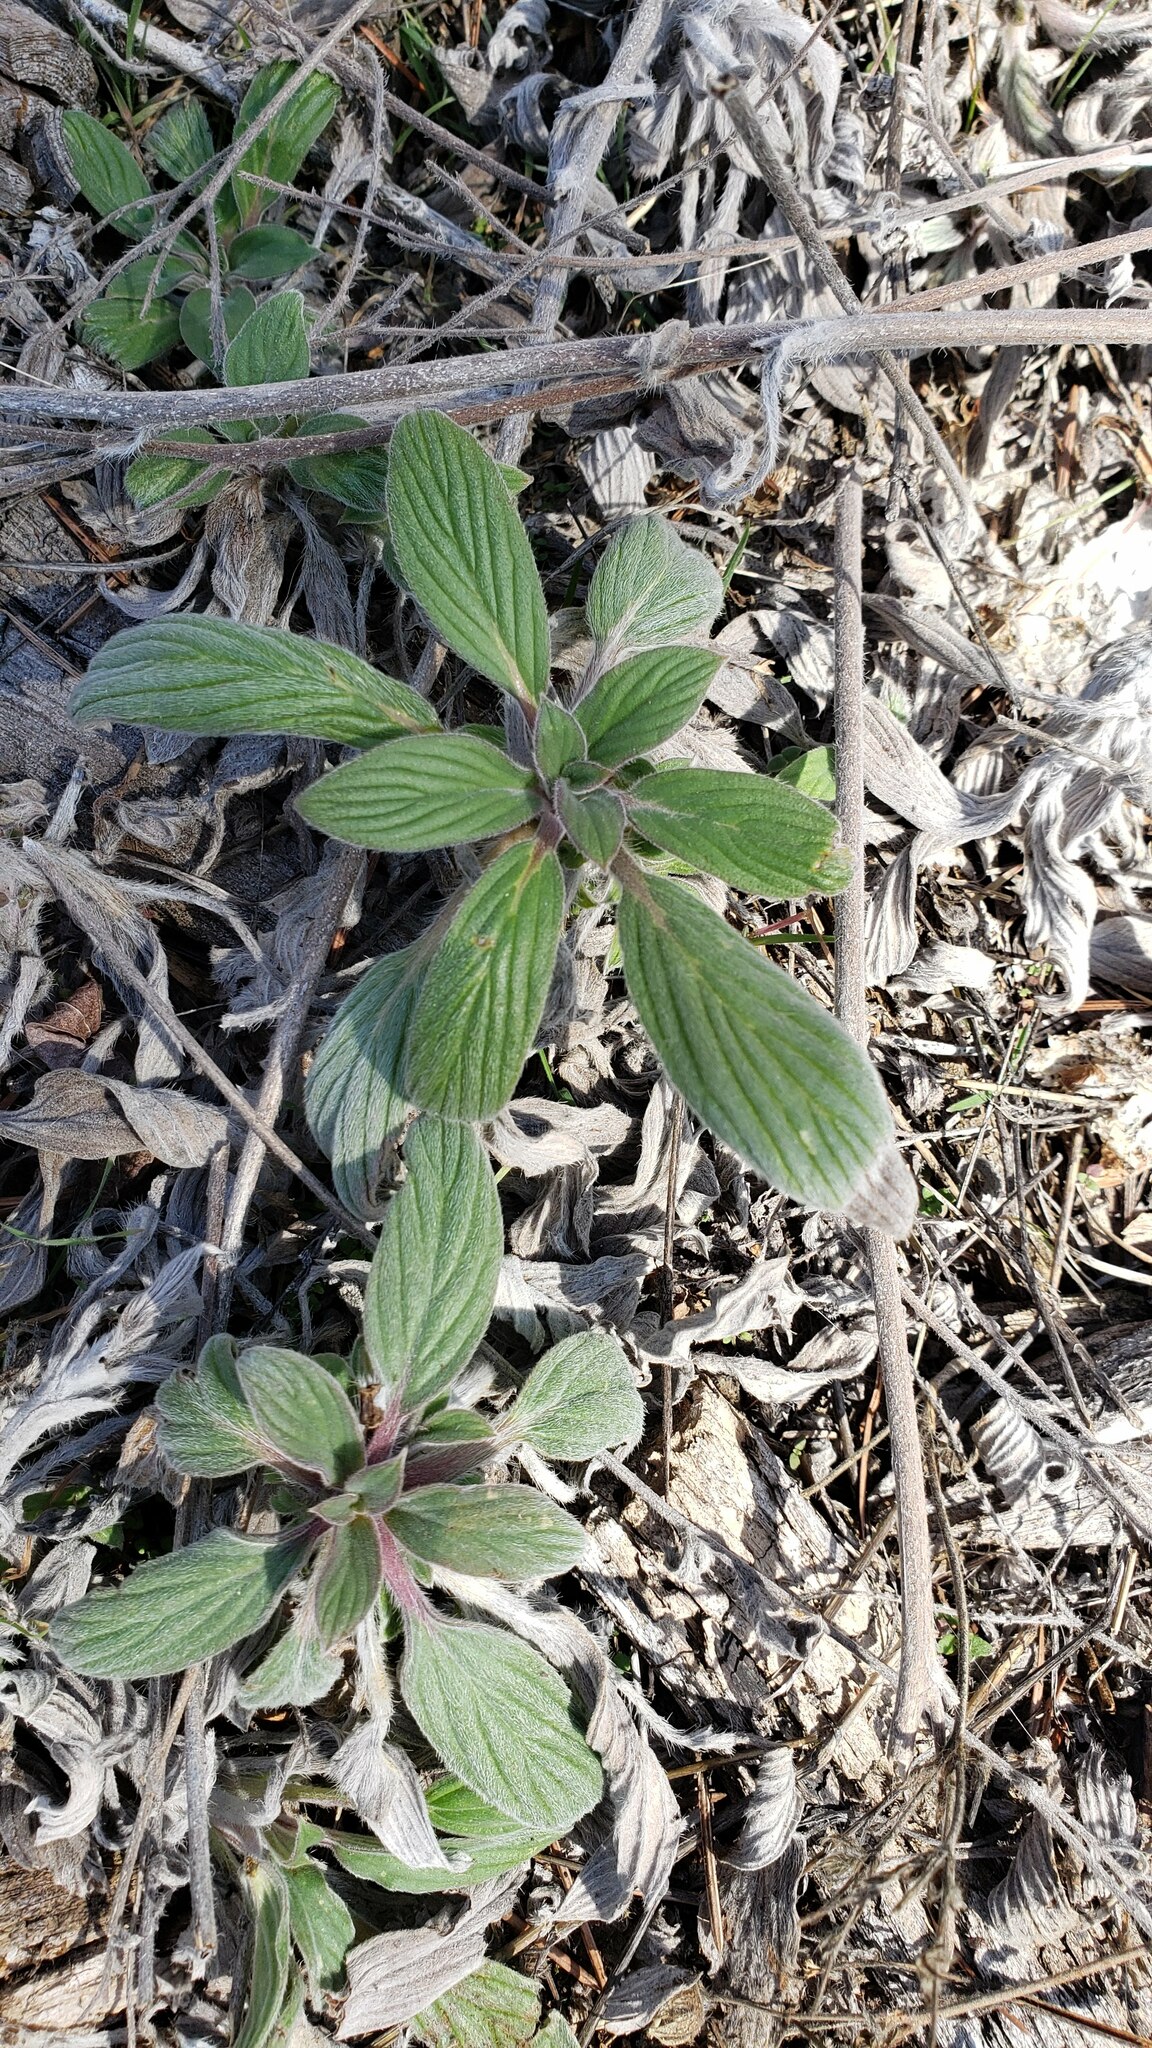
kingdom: Plantae
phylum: Tracheophyta
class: Magnoliopsida
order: Boraginales
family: Hydrophyllaceae
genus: Phacelia
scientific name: Phacelia hastata
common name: Silver-leaved phacelia
